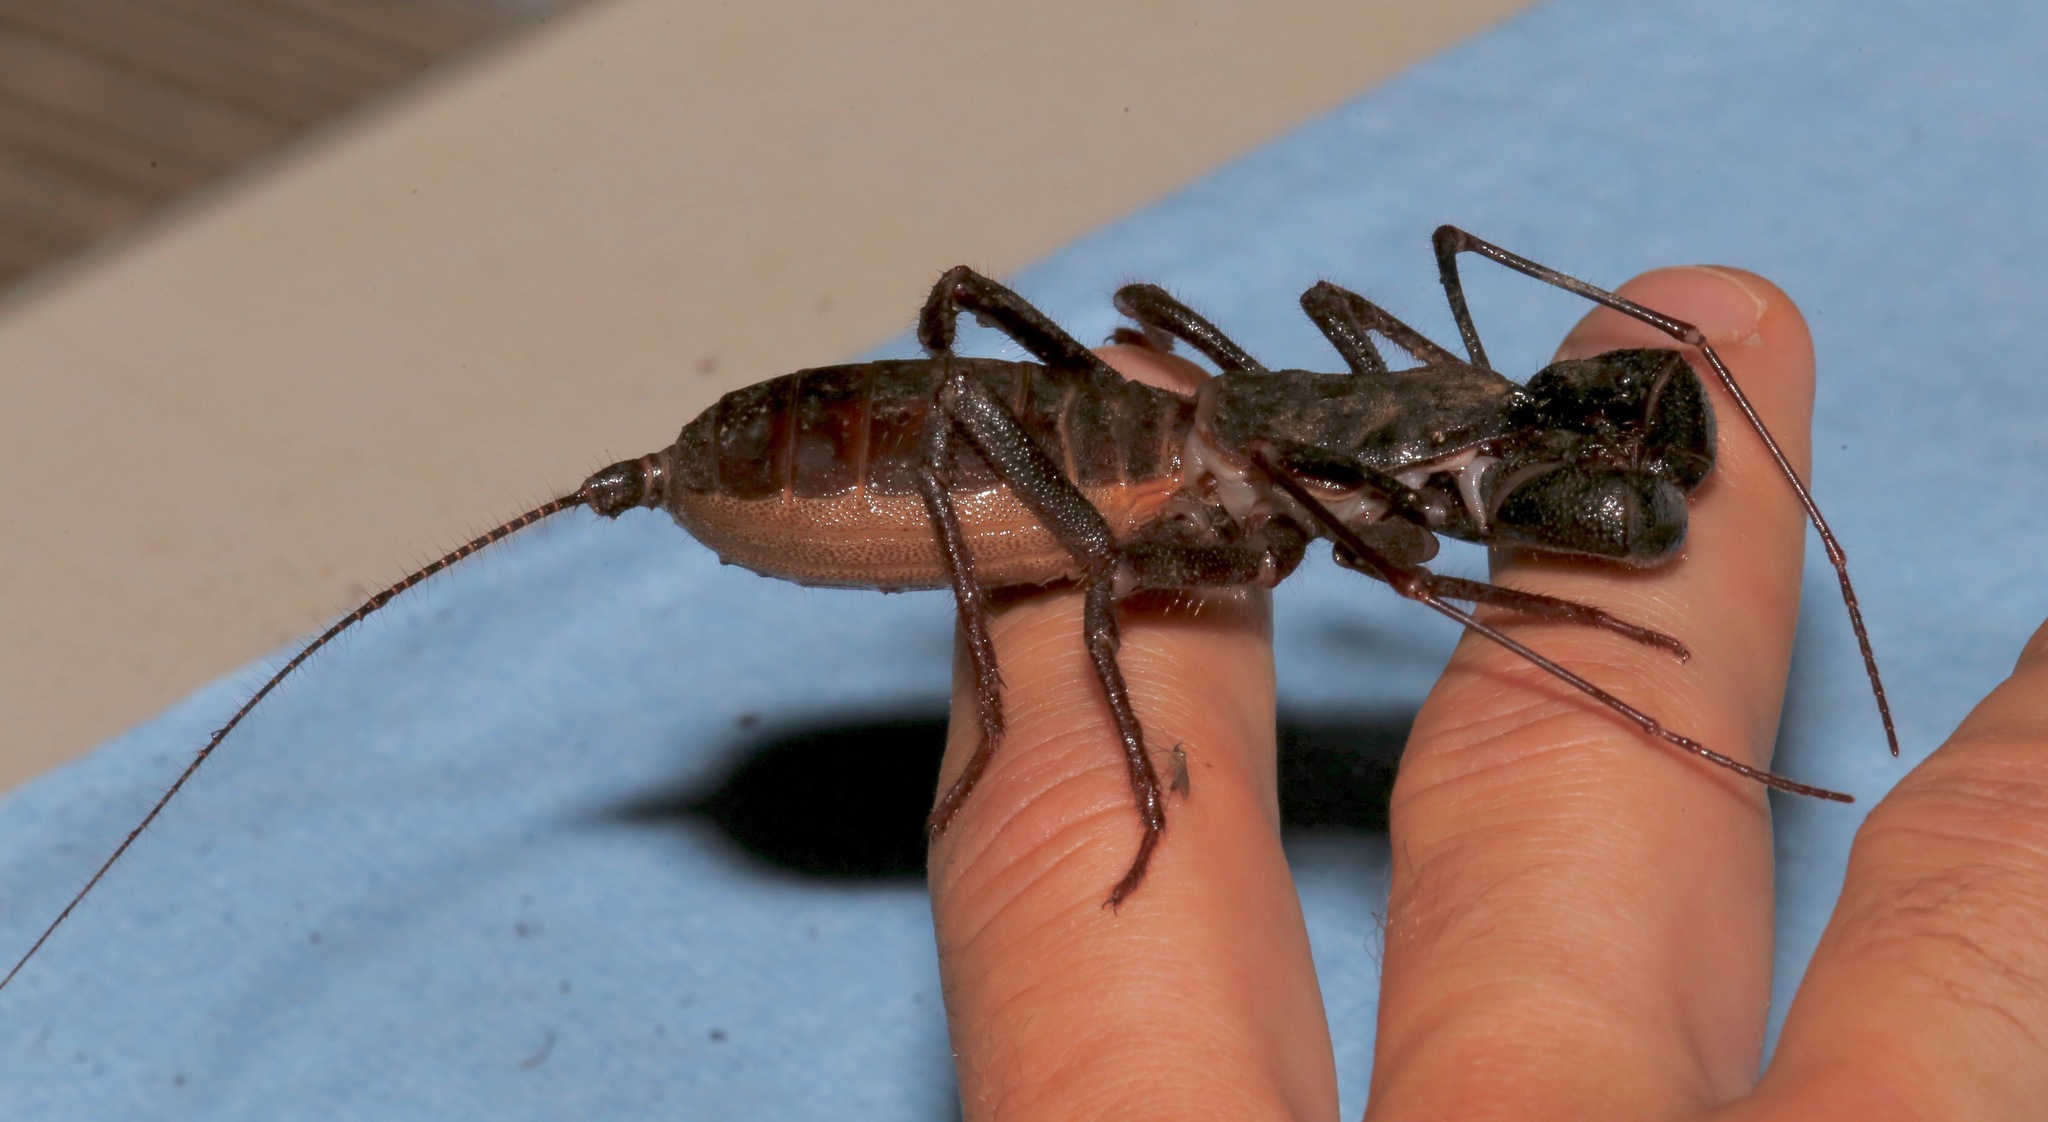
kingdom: Animalia
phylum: Arthropoda
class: Arachnida
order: Uropygi
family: Thelyphonidae
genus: Mastigoproctus
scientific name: Mastigoproctus tohono
